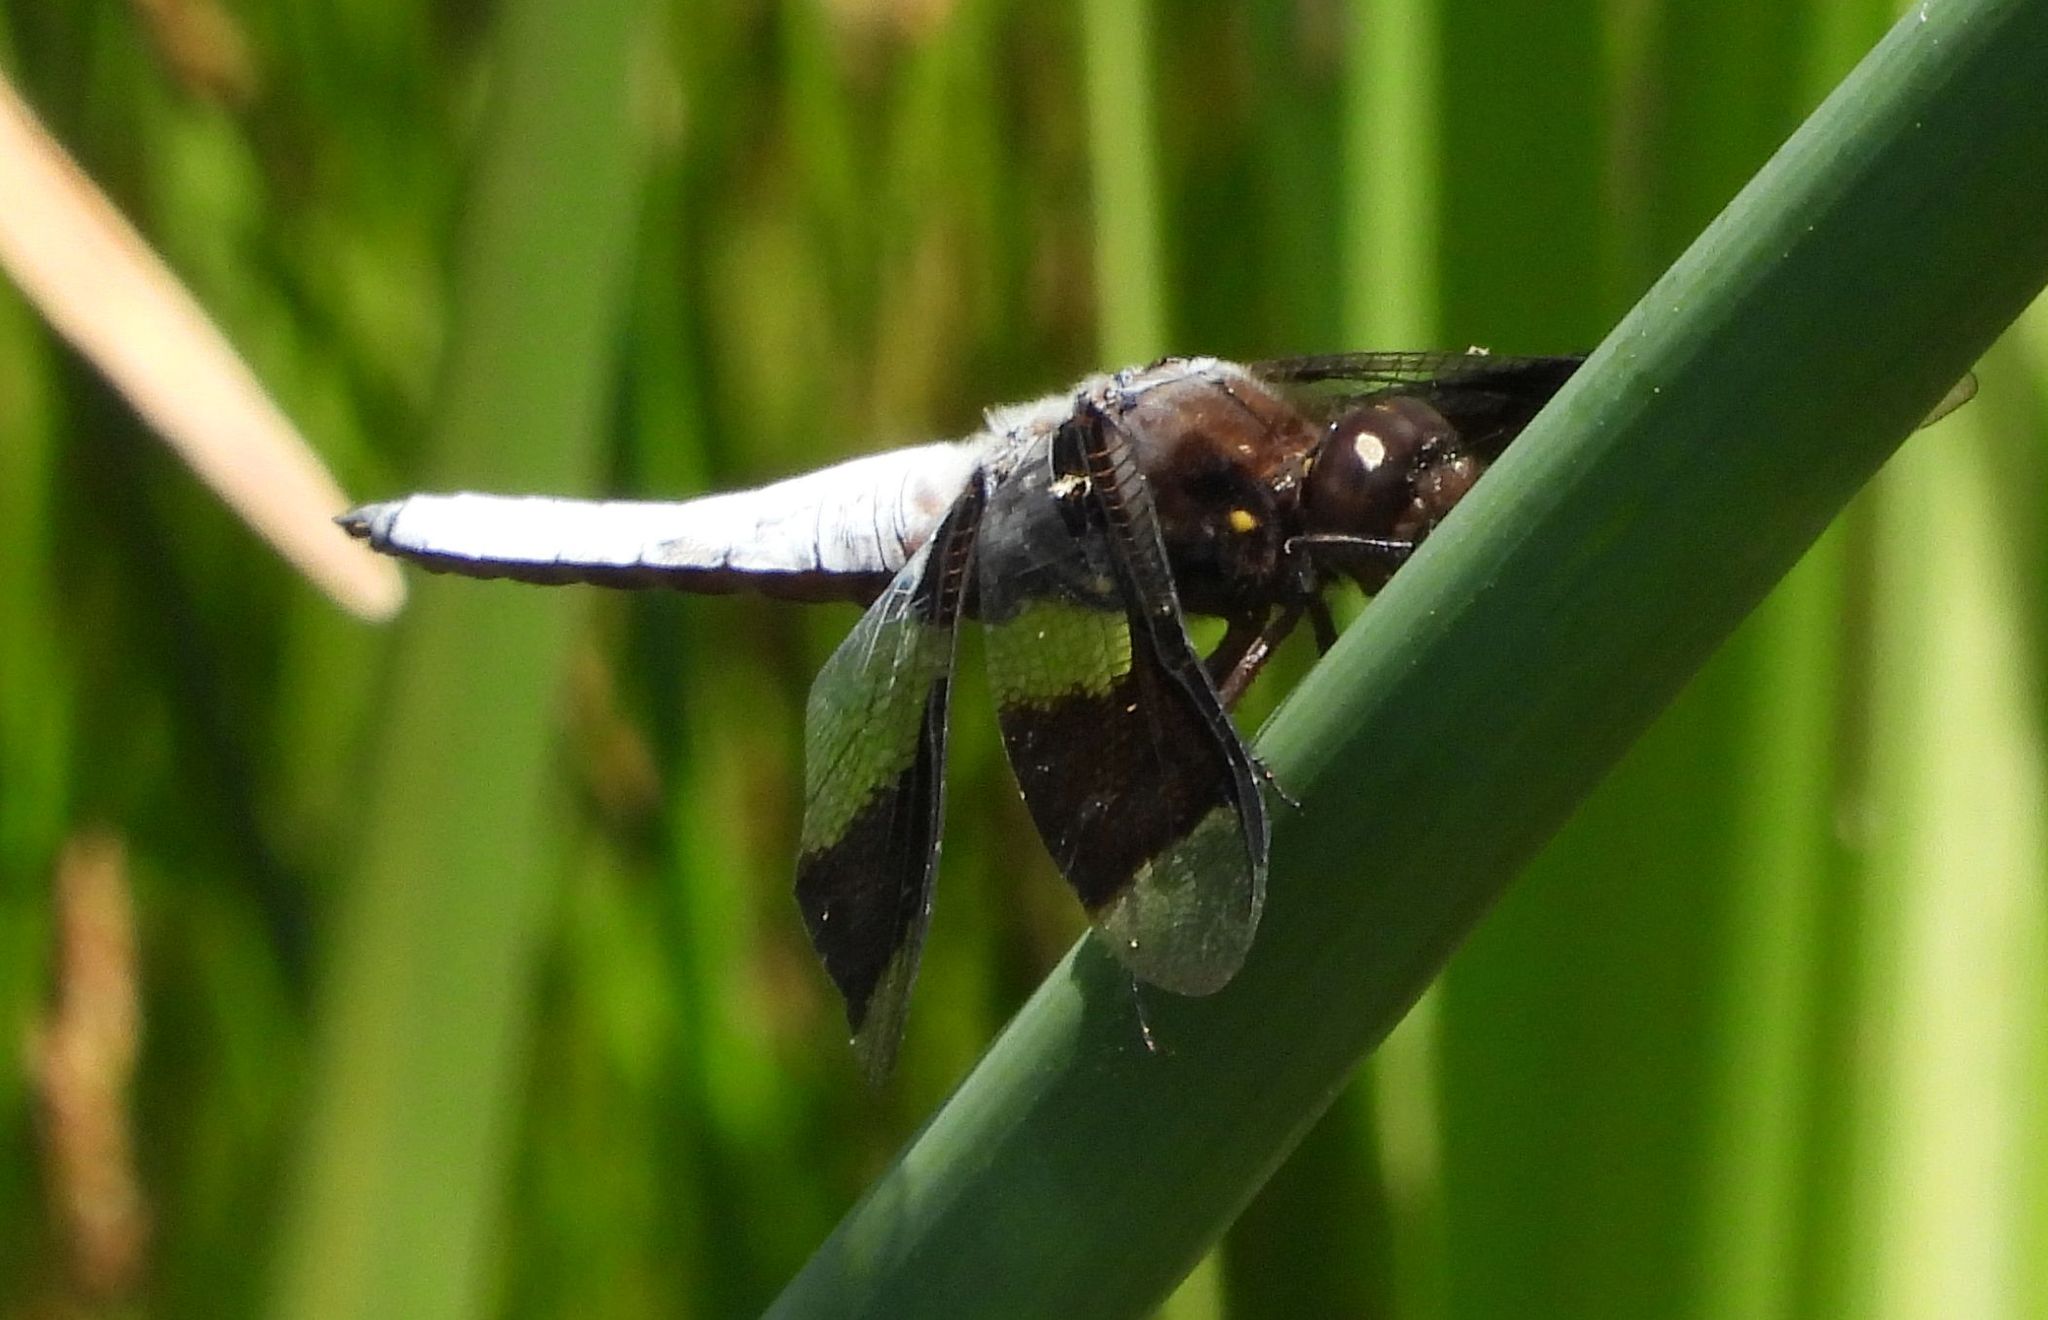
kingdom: Animalia
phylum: Arthropoda
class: Insecta
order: Odonata
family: Libellulidae
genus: Plathemis
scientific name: Plathemis lydia
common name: Common whitetail
